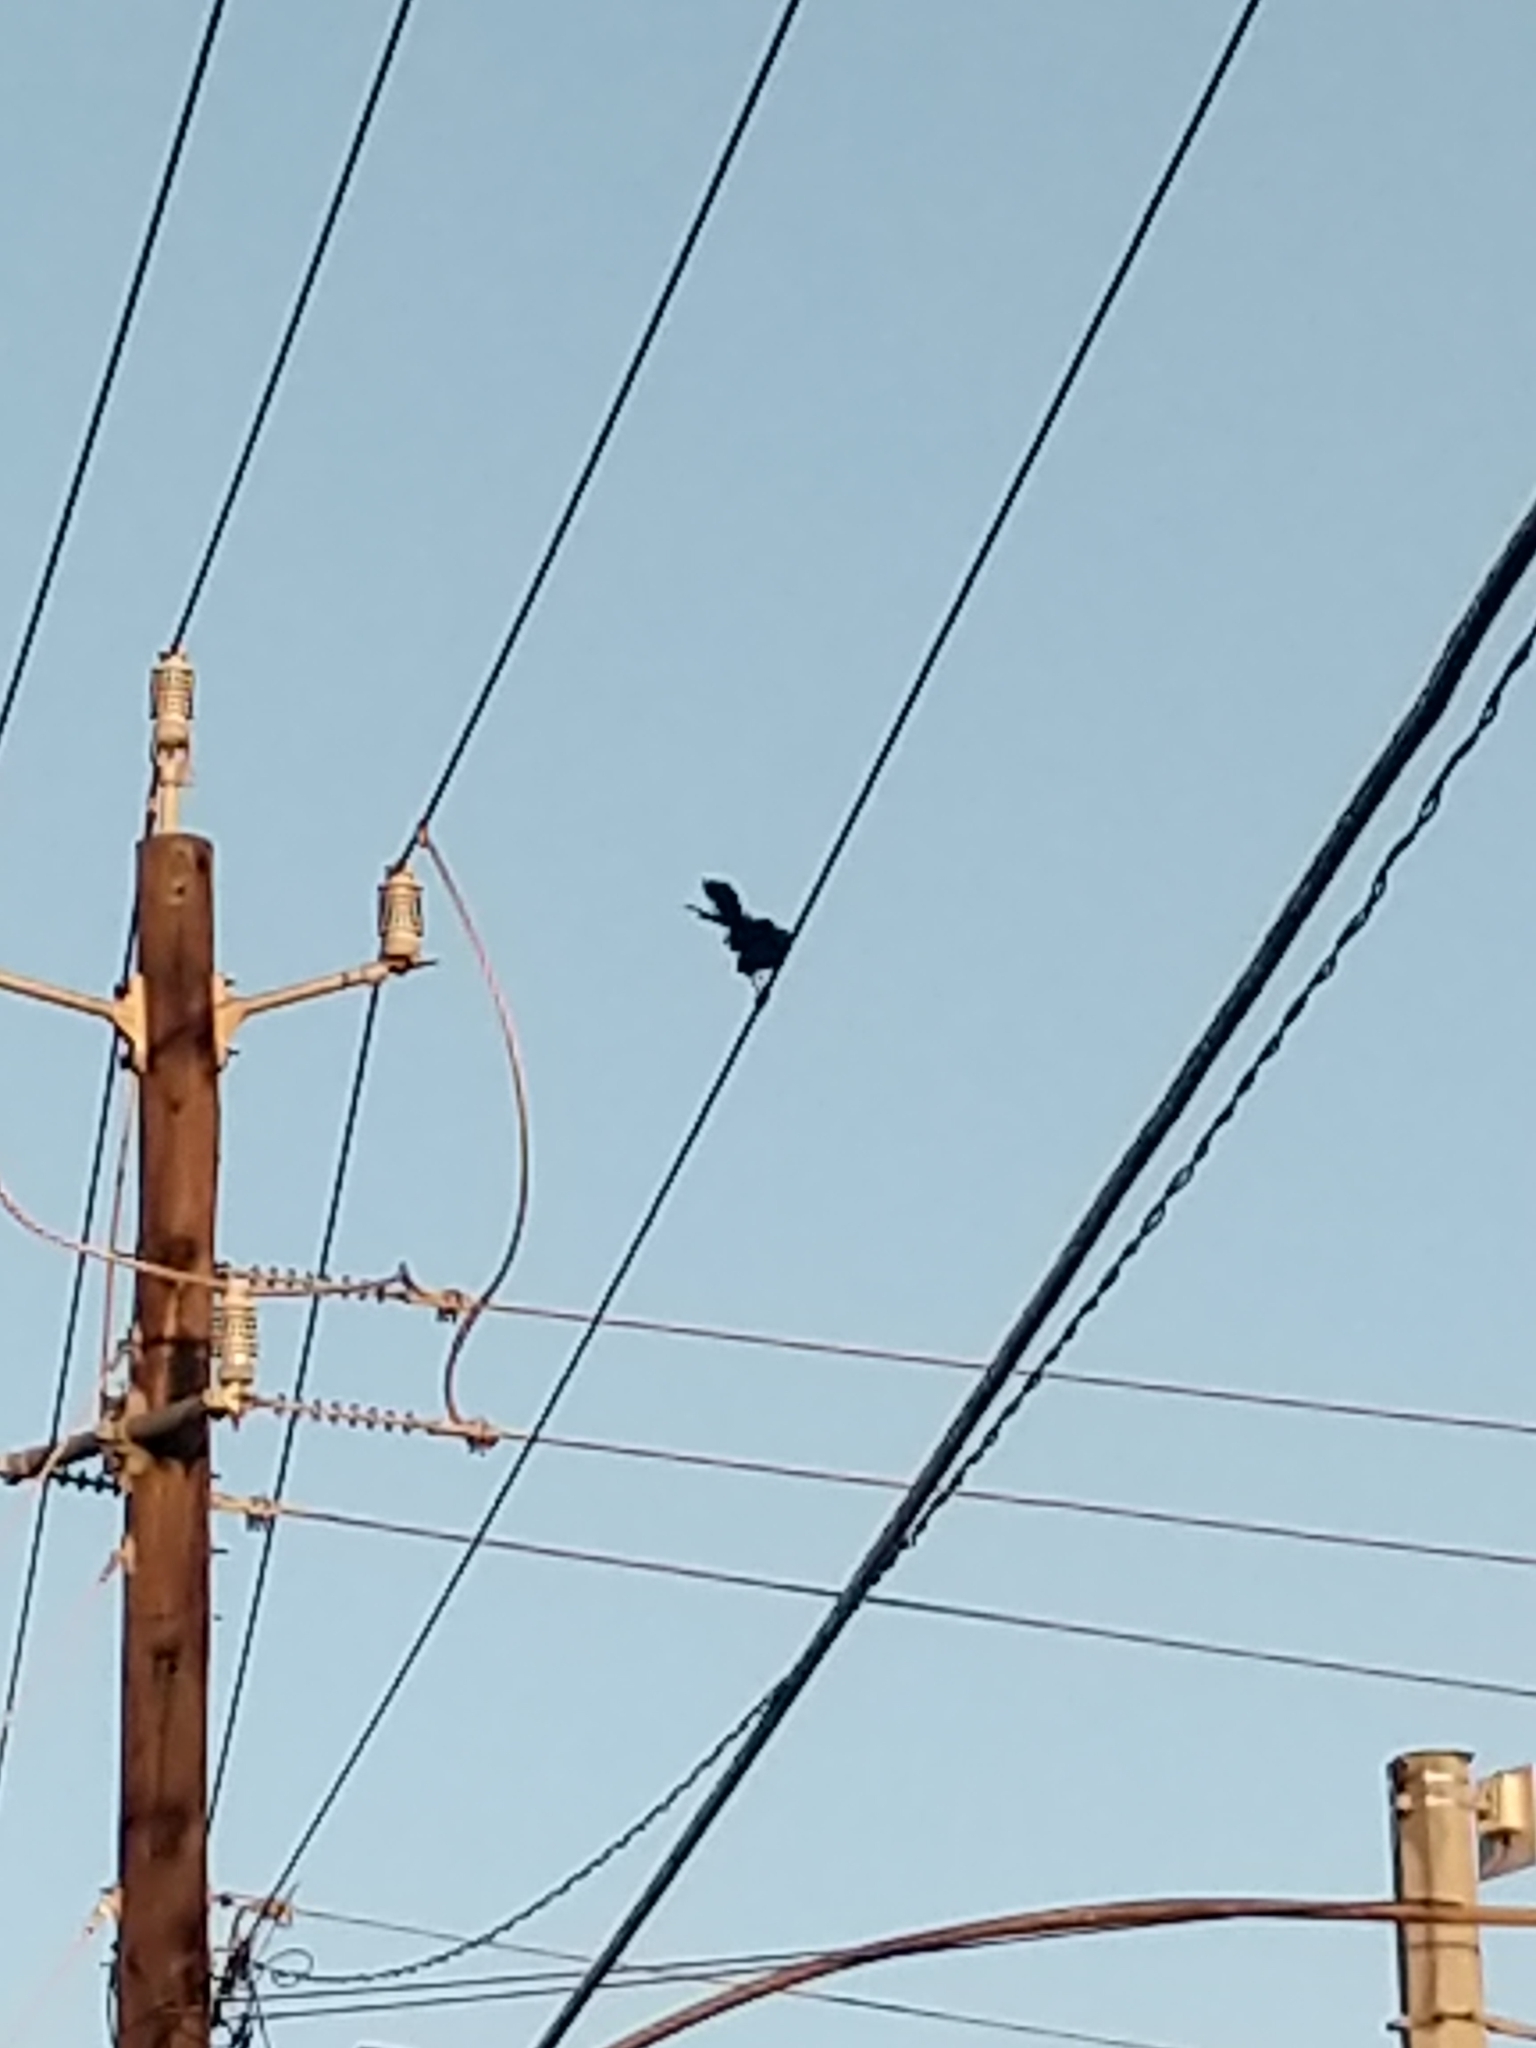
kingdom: Animalia
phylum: Chordata
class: Aves
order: Passeriformes
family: Icteridae
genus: Quiscalus
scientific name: Quiscalus mexicanus
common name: Great-tailed grackle
